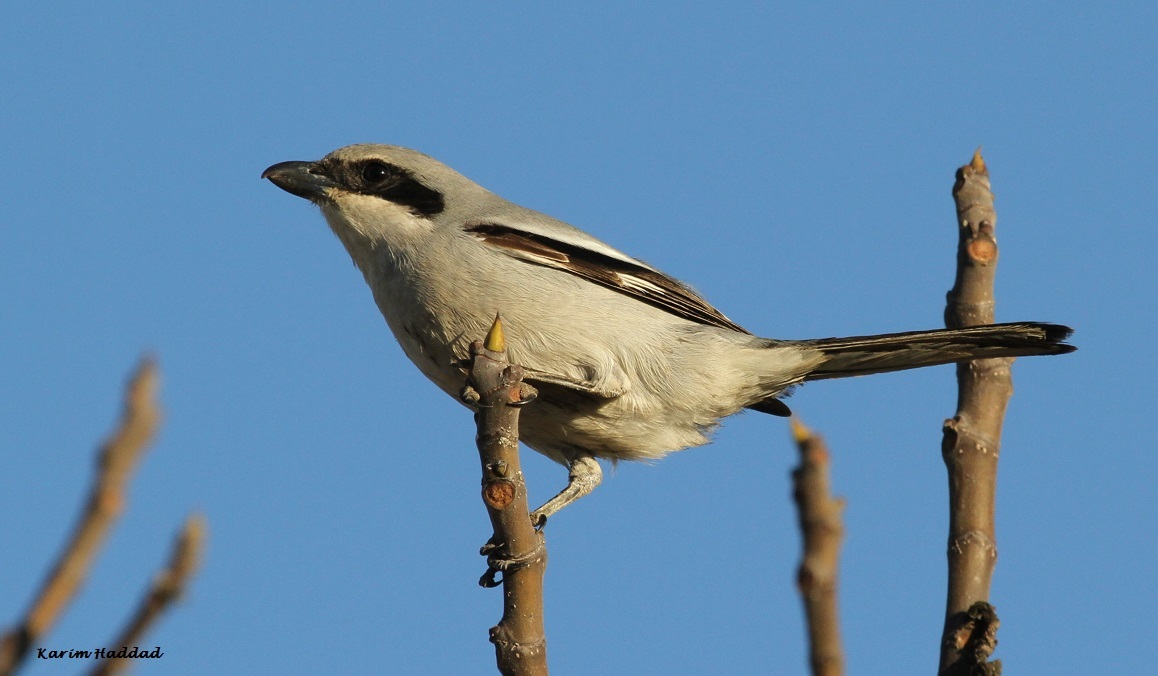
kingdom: Animalia
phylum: Chordata
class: Aves
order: Passeriformes
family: Laniidae
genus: Lanius
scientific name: Lanius excubitor
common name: Great grey shrike
